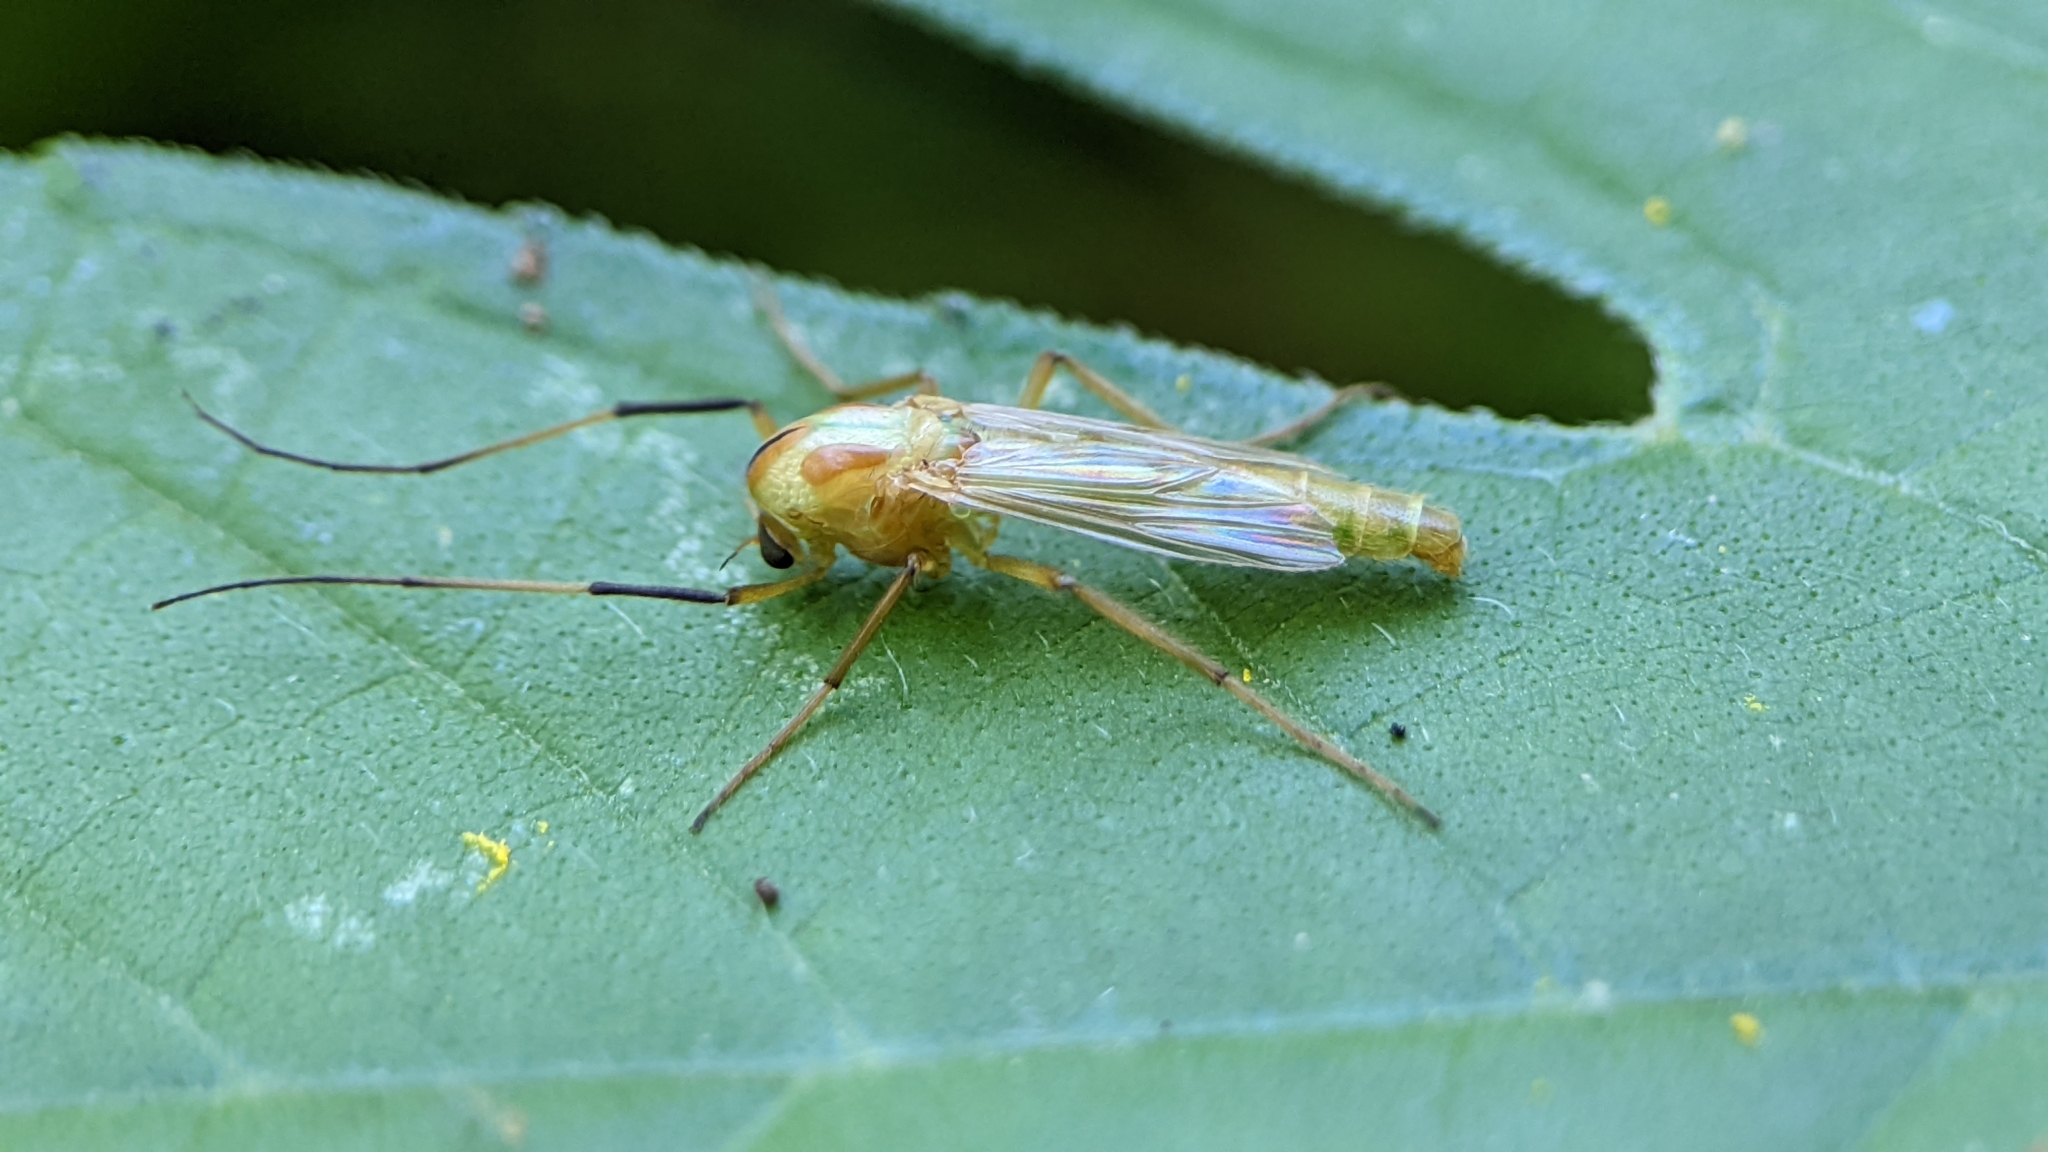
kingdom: Animalia
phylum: Arthropoda
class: Insecta
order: Diptera
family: Chironomidae
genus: Axarus
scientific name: Axarus
